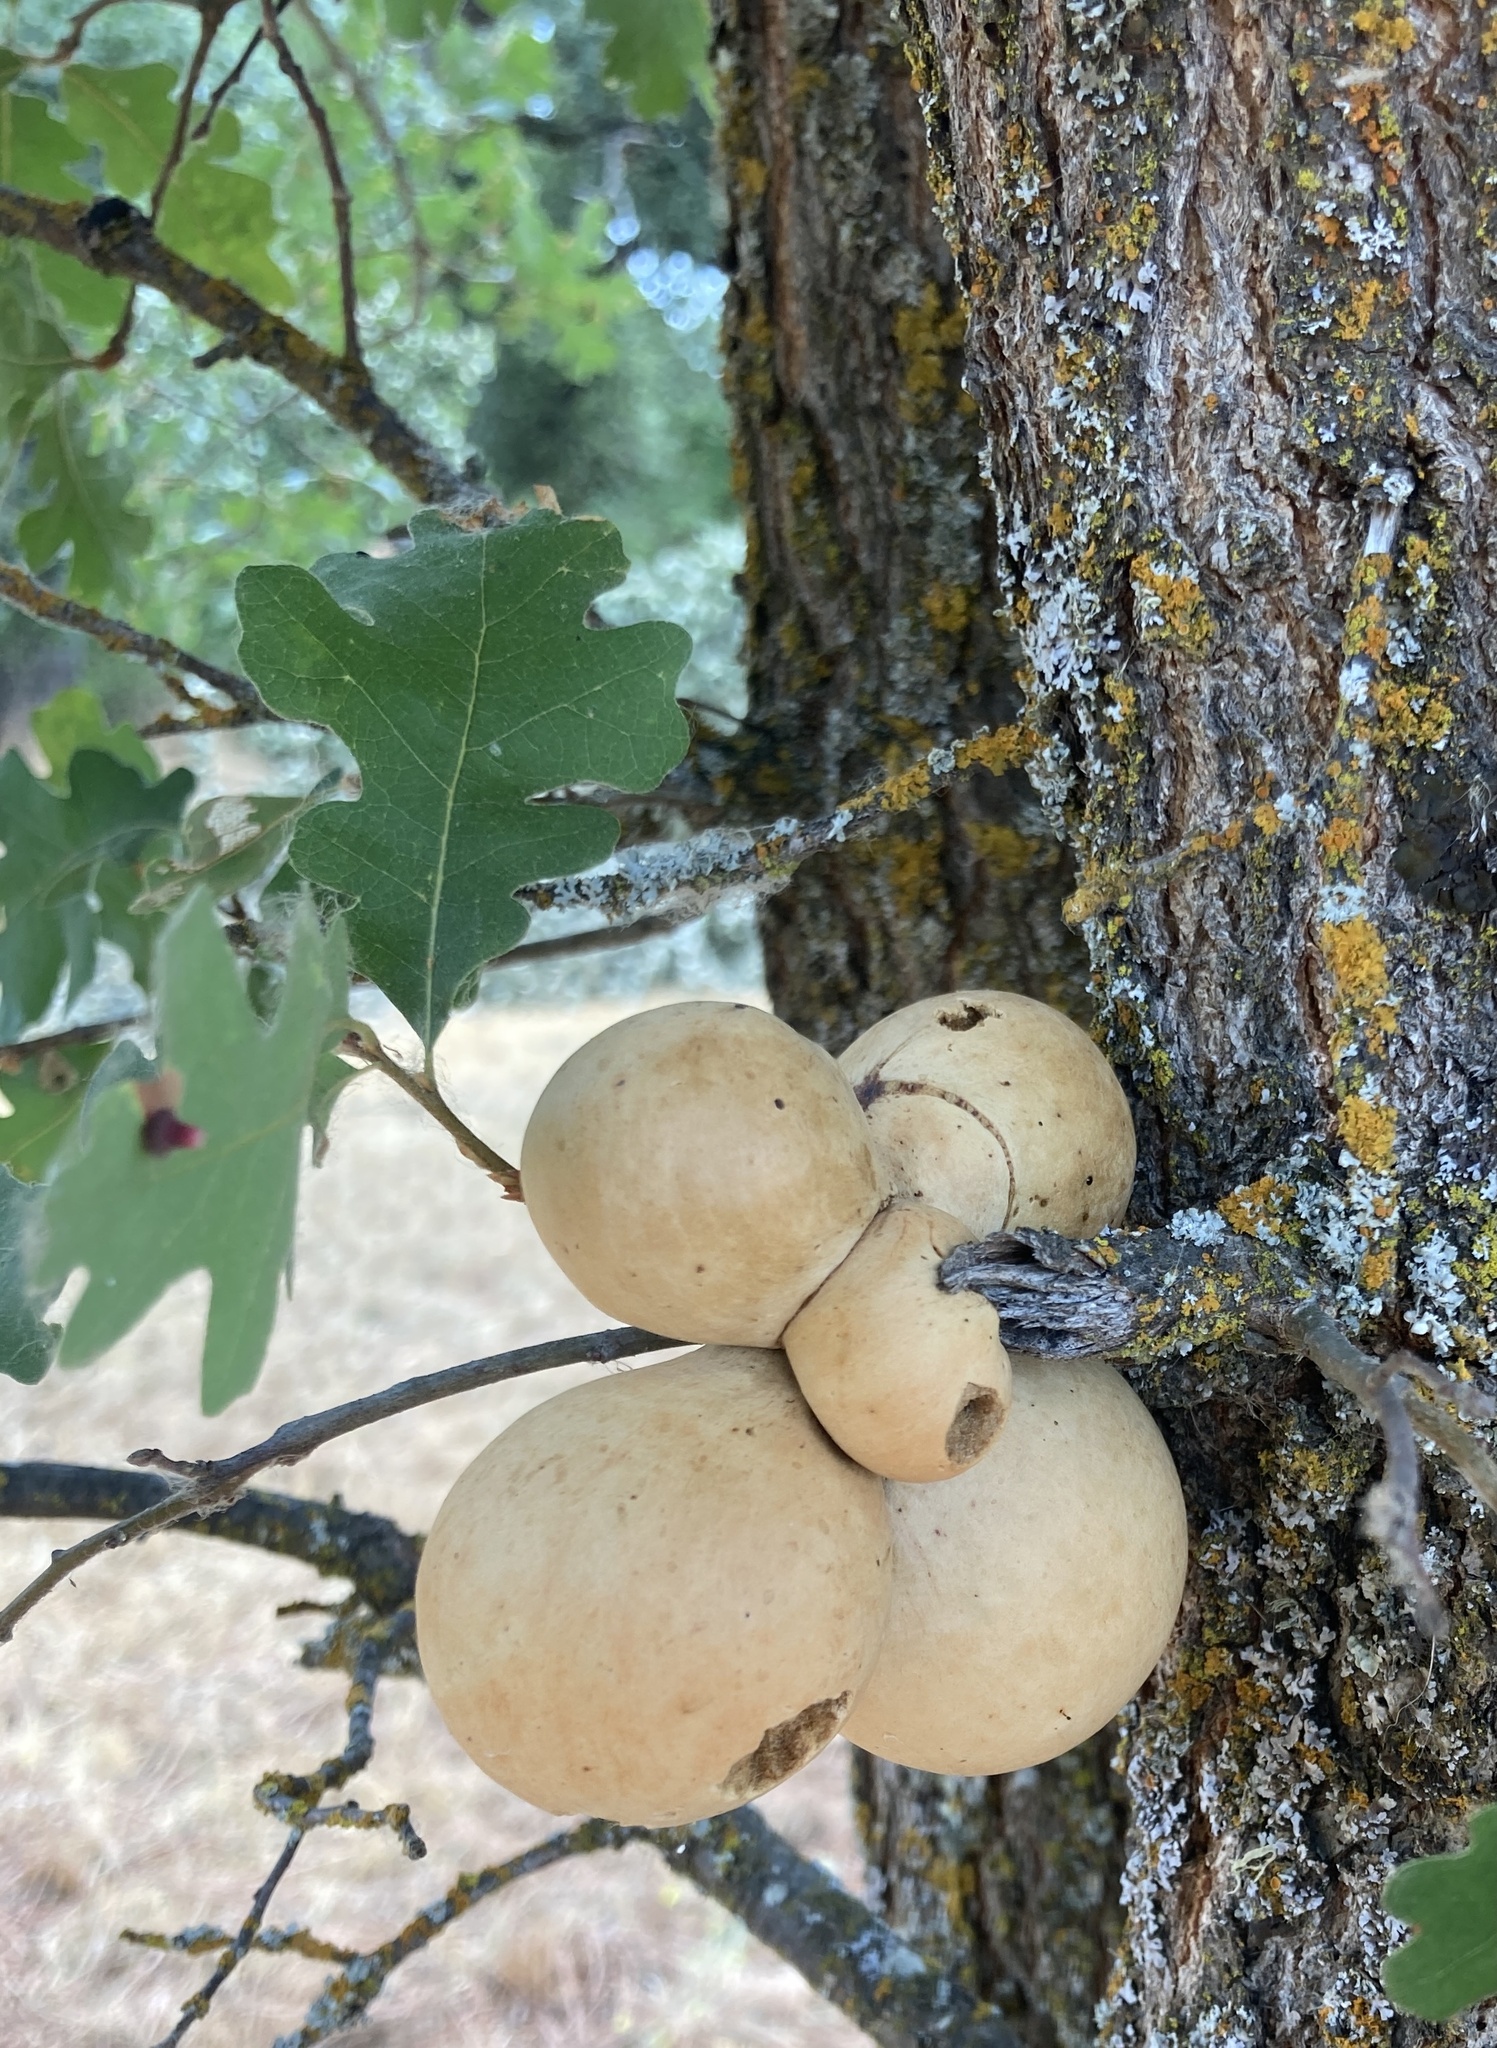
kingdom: Animalia
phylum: Arthropoda
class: Insecta
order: Hymenoptera
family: Cynipidae
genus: Andricus
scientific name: Andricus quercuscalifornicus
